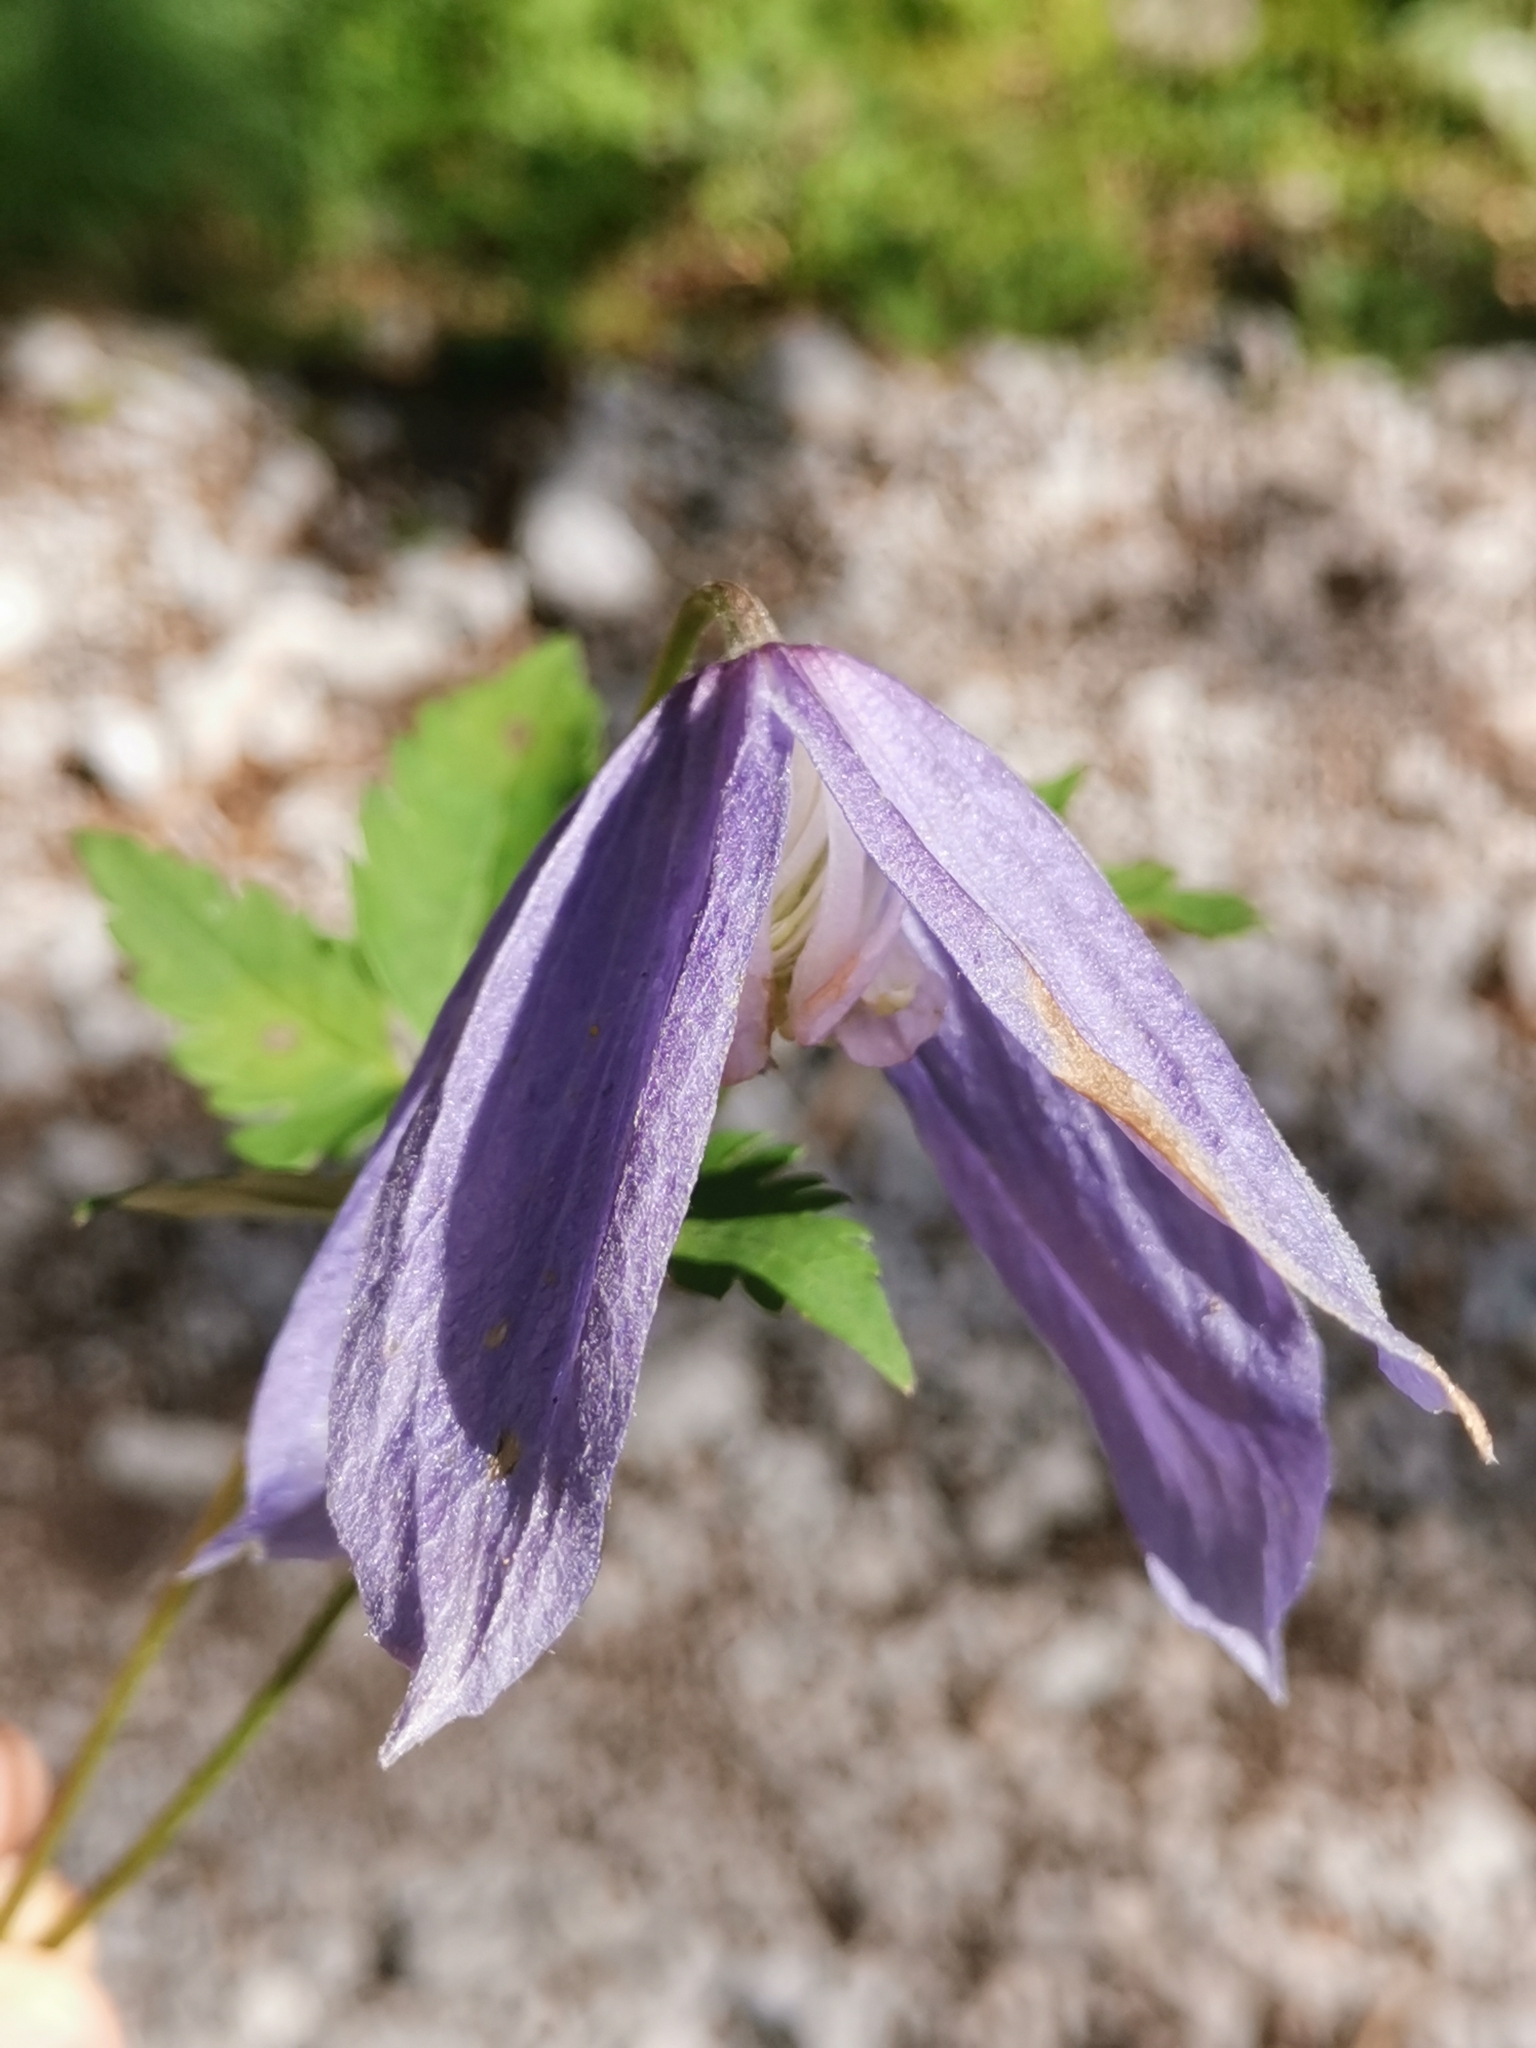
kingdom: Plantae
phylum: Tracheophyta
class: Magnoliopsida
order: Ranunculales
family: Ranunculaceae
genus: Clematis
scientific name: Clematis alpina
